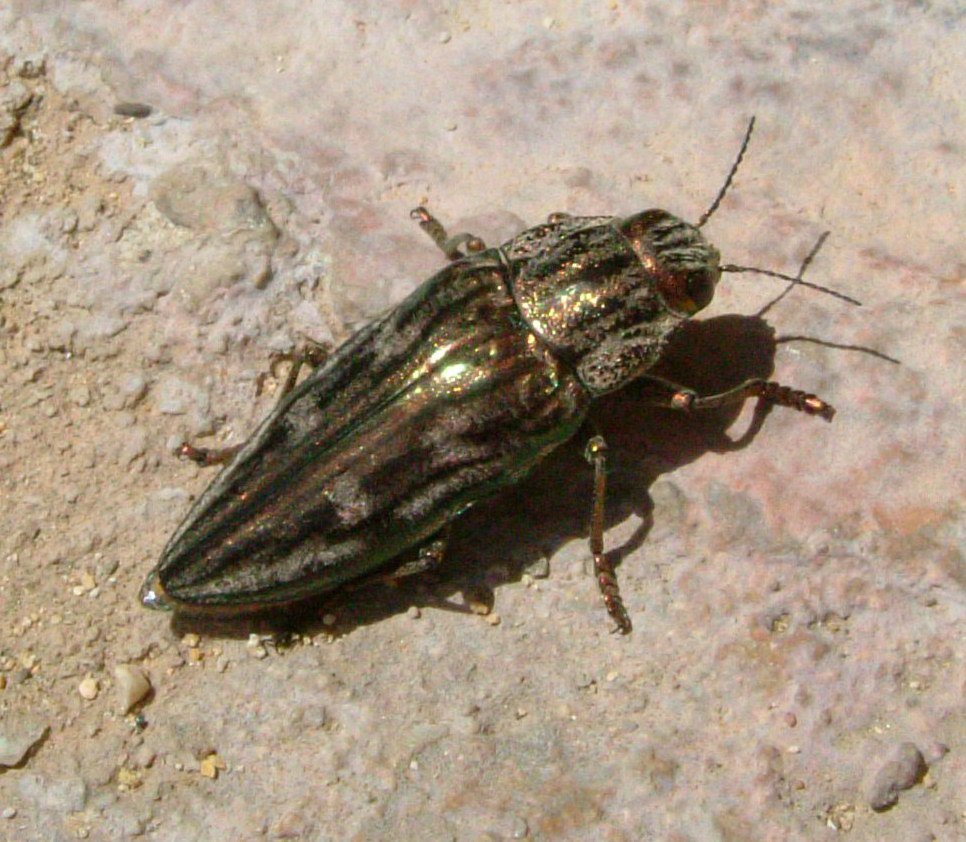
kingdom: Animalia
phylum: Arthropoda
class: Insecta
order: Coleoptera
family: Buprestidae
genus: Chalcophora
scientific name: Chalcophora massiliensis
